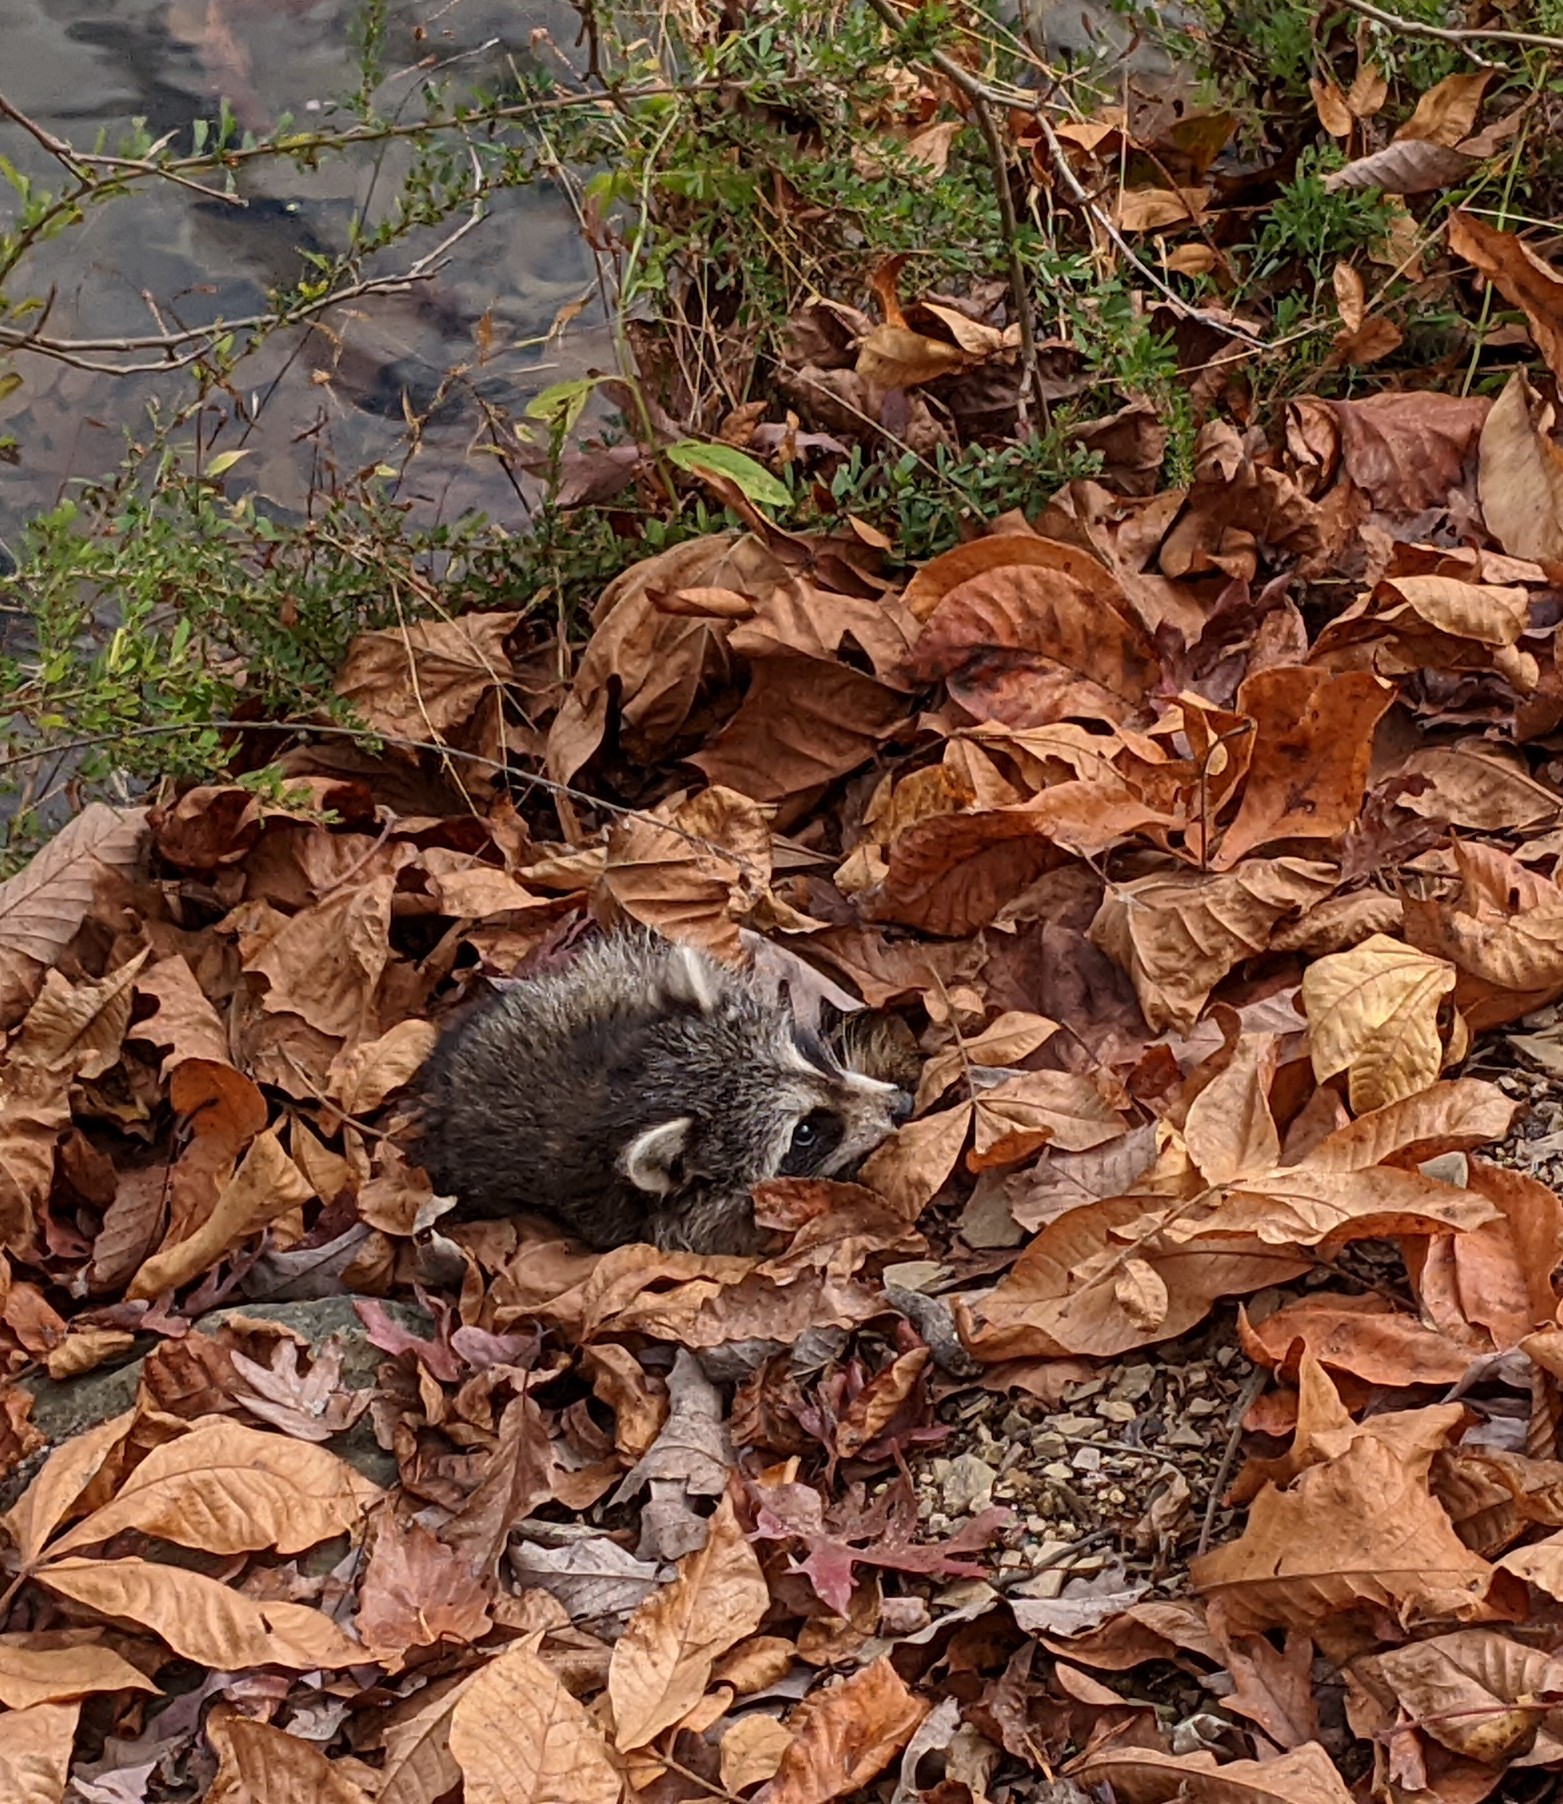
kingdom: Animalia
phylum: Chordata
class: Mammalia
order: Carnivora
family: Procyonidae
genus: Procyon
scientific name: Procyon lotor
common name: Raccoon
